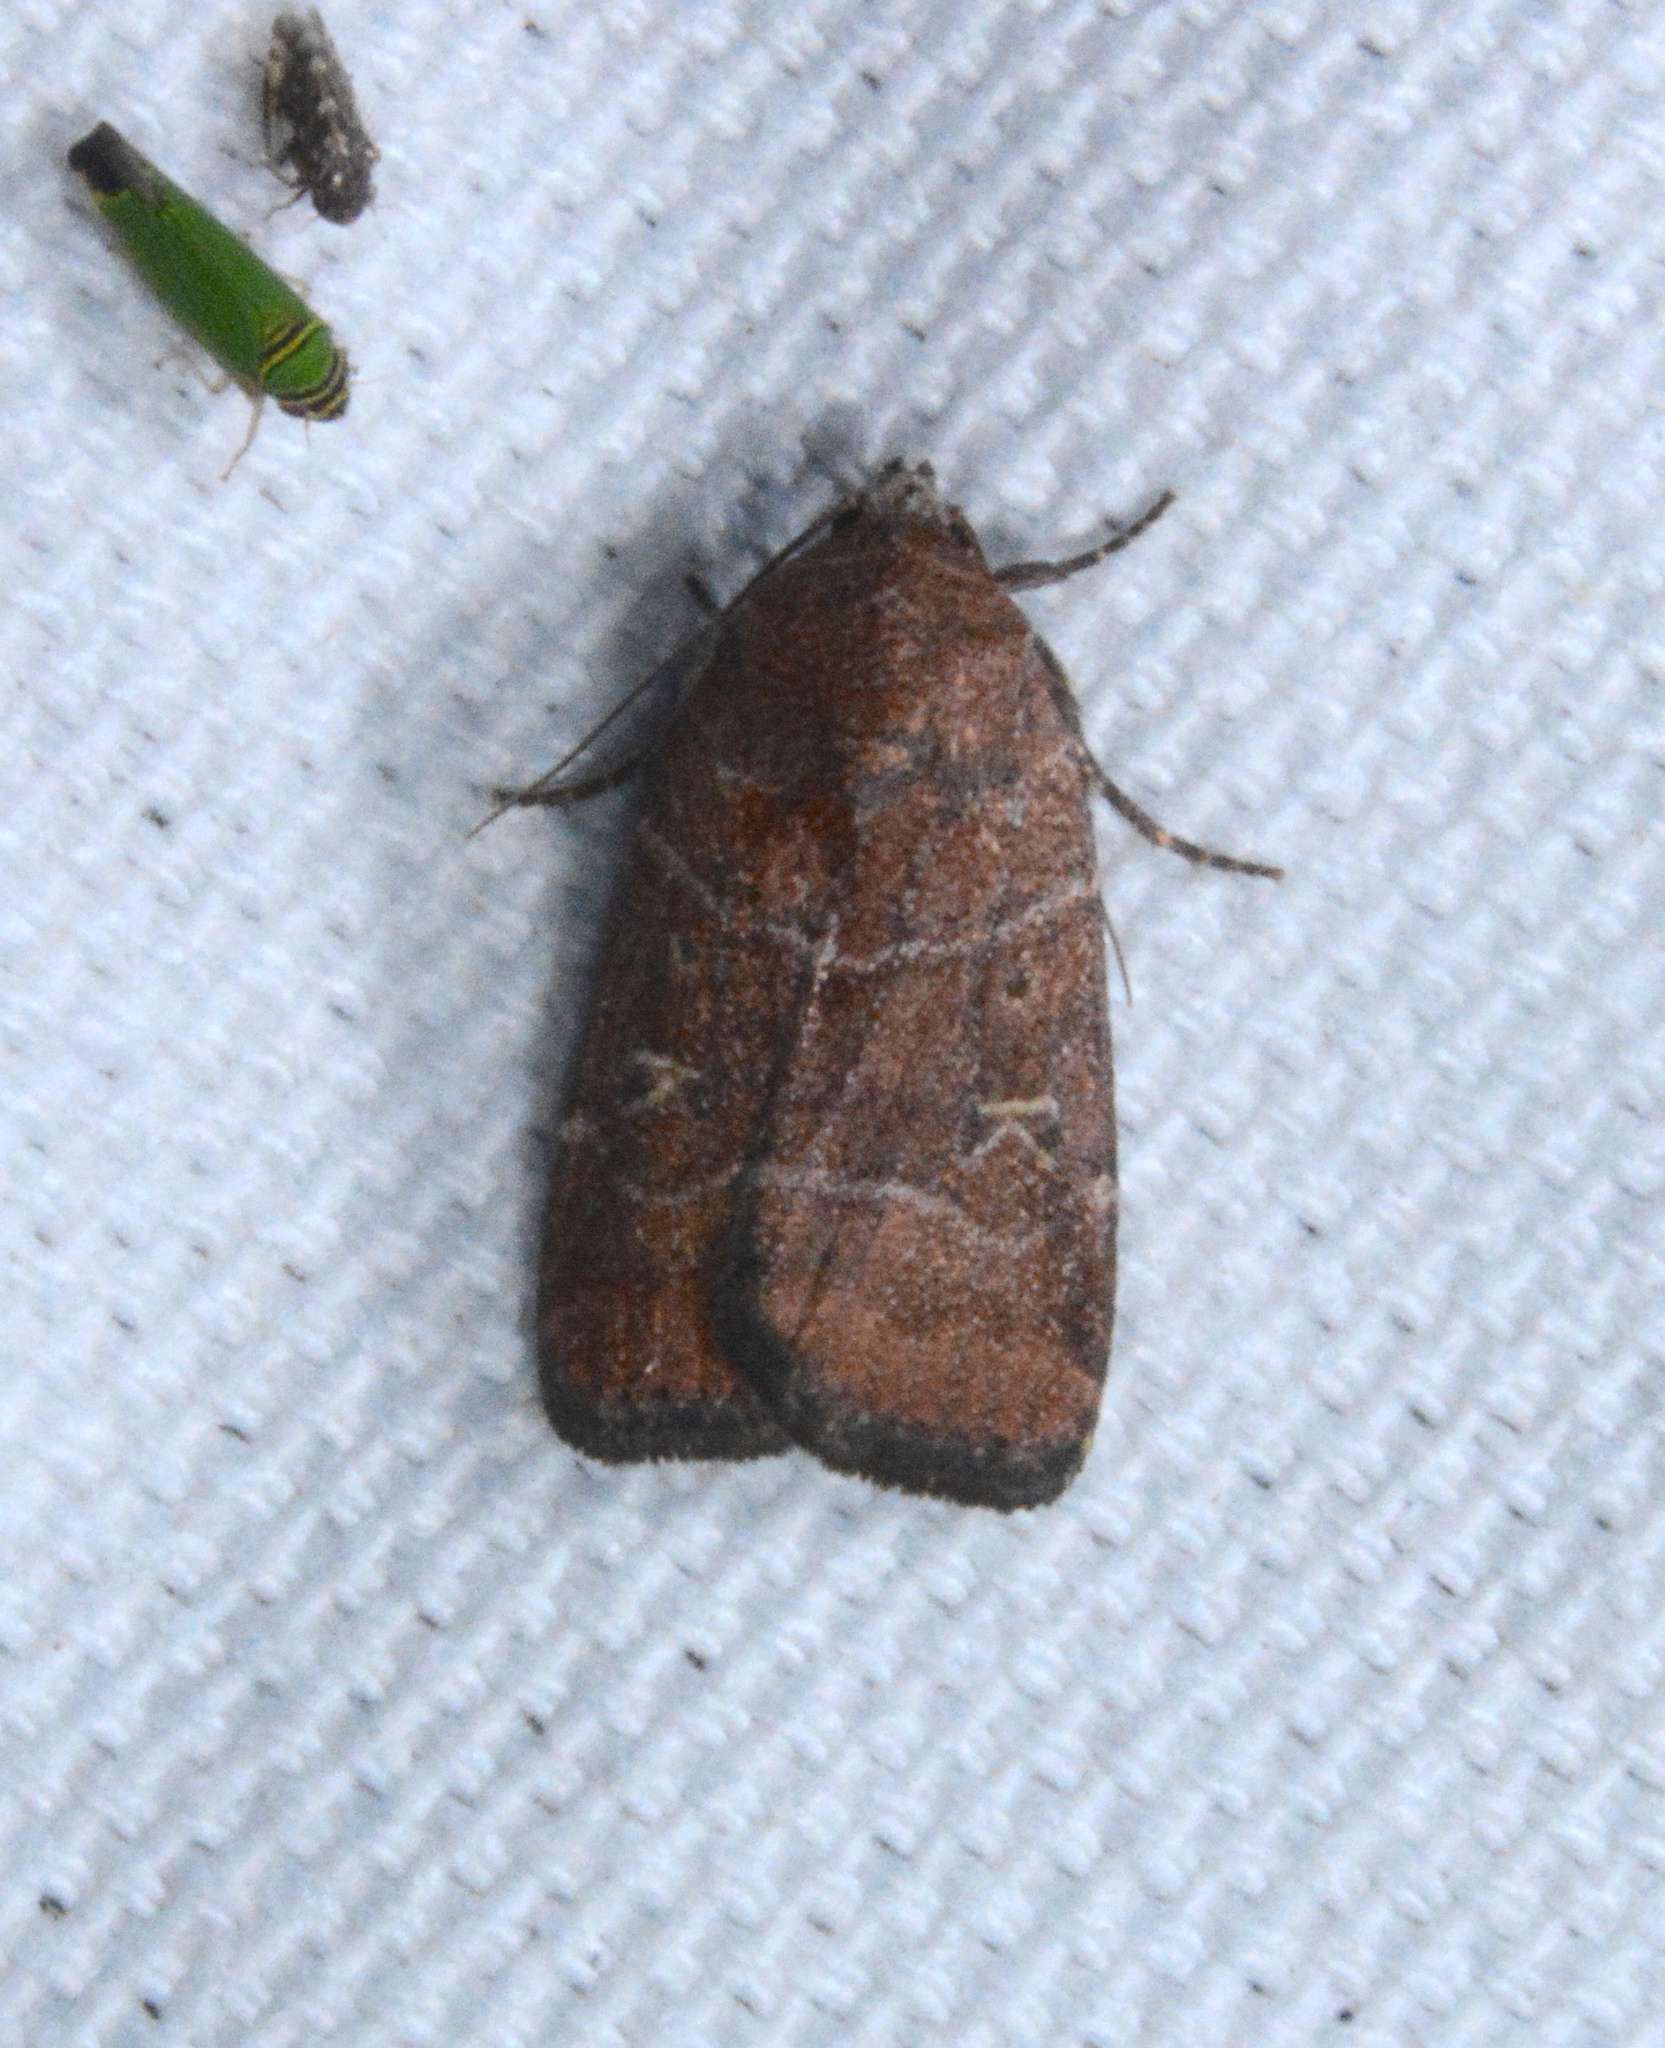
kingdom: Animalia
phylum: Arthropoda
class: Insecta
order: Lepidoptera
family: Noctuidae
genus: Elaphria
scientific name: Elaphria grata
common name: Grateful midget moth
